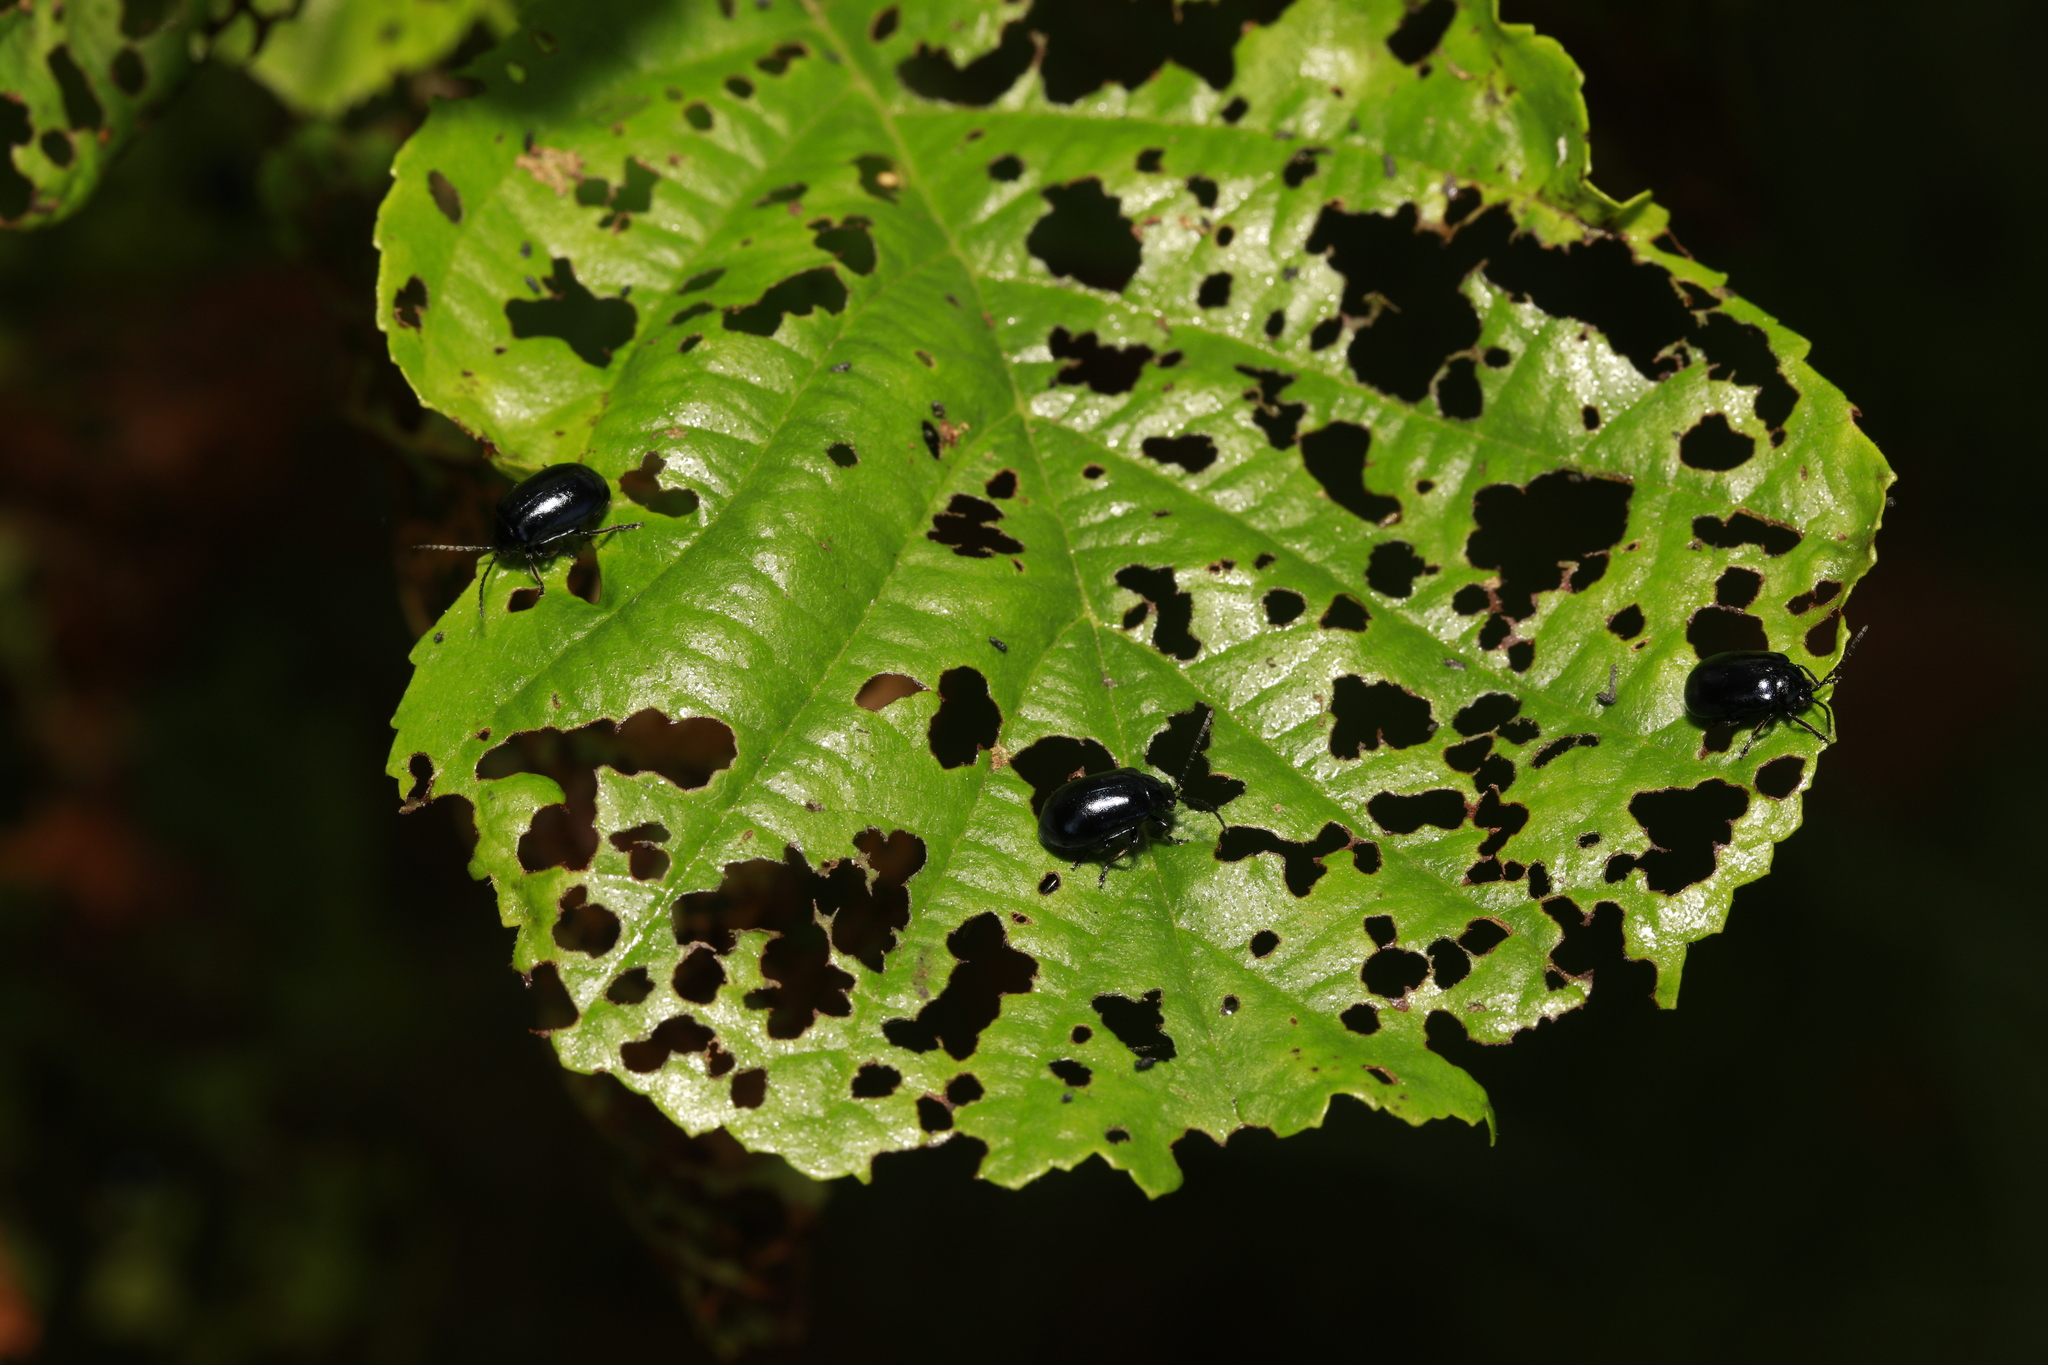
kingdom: Animalia
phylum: Arthropoda
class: Insecta
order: Coleoptera
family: Chrysomelidae
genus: Agelastica
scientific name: Agelastica alni
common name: Alder leaf beetle
